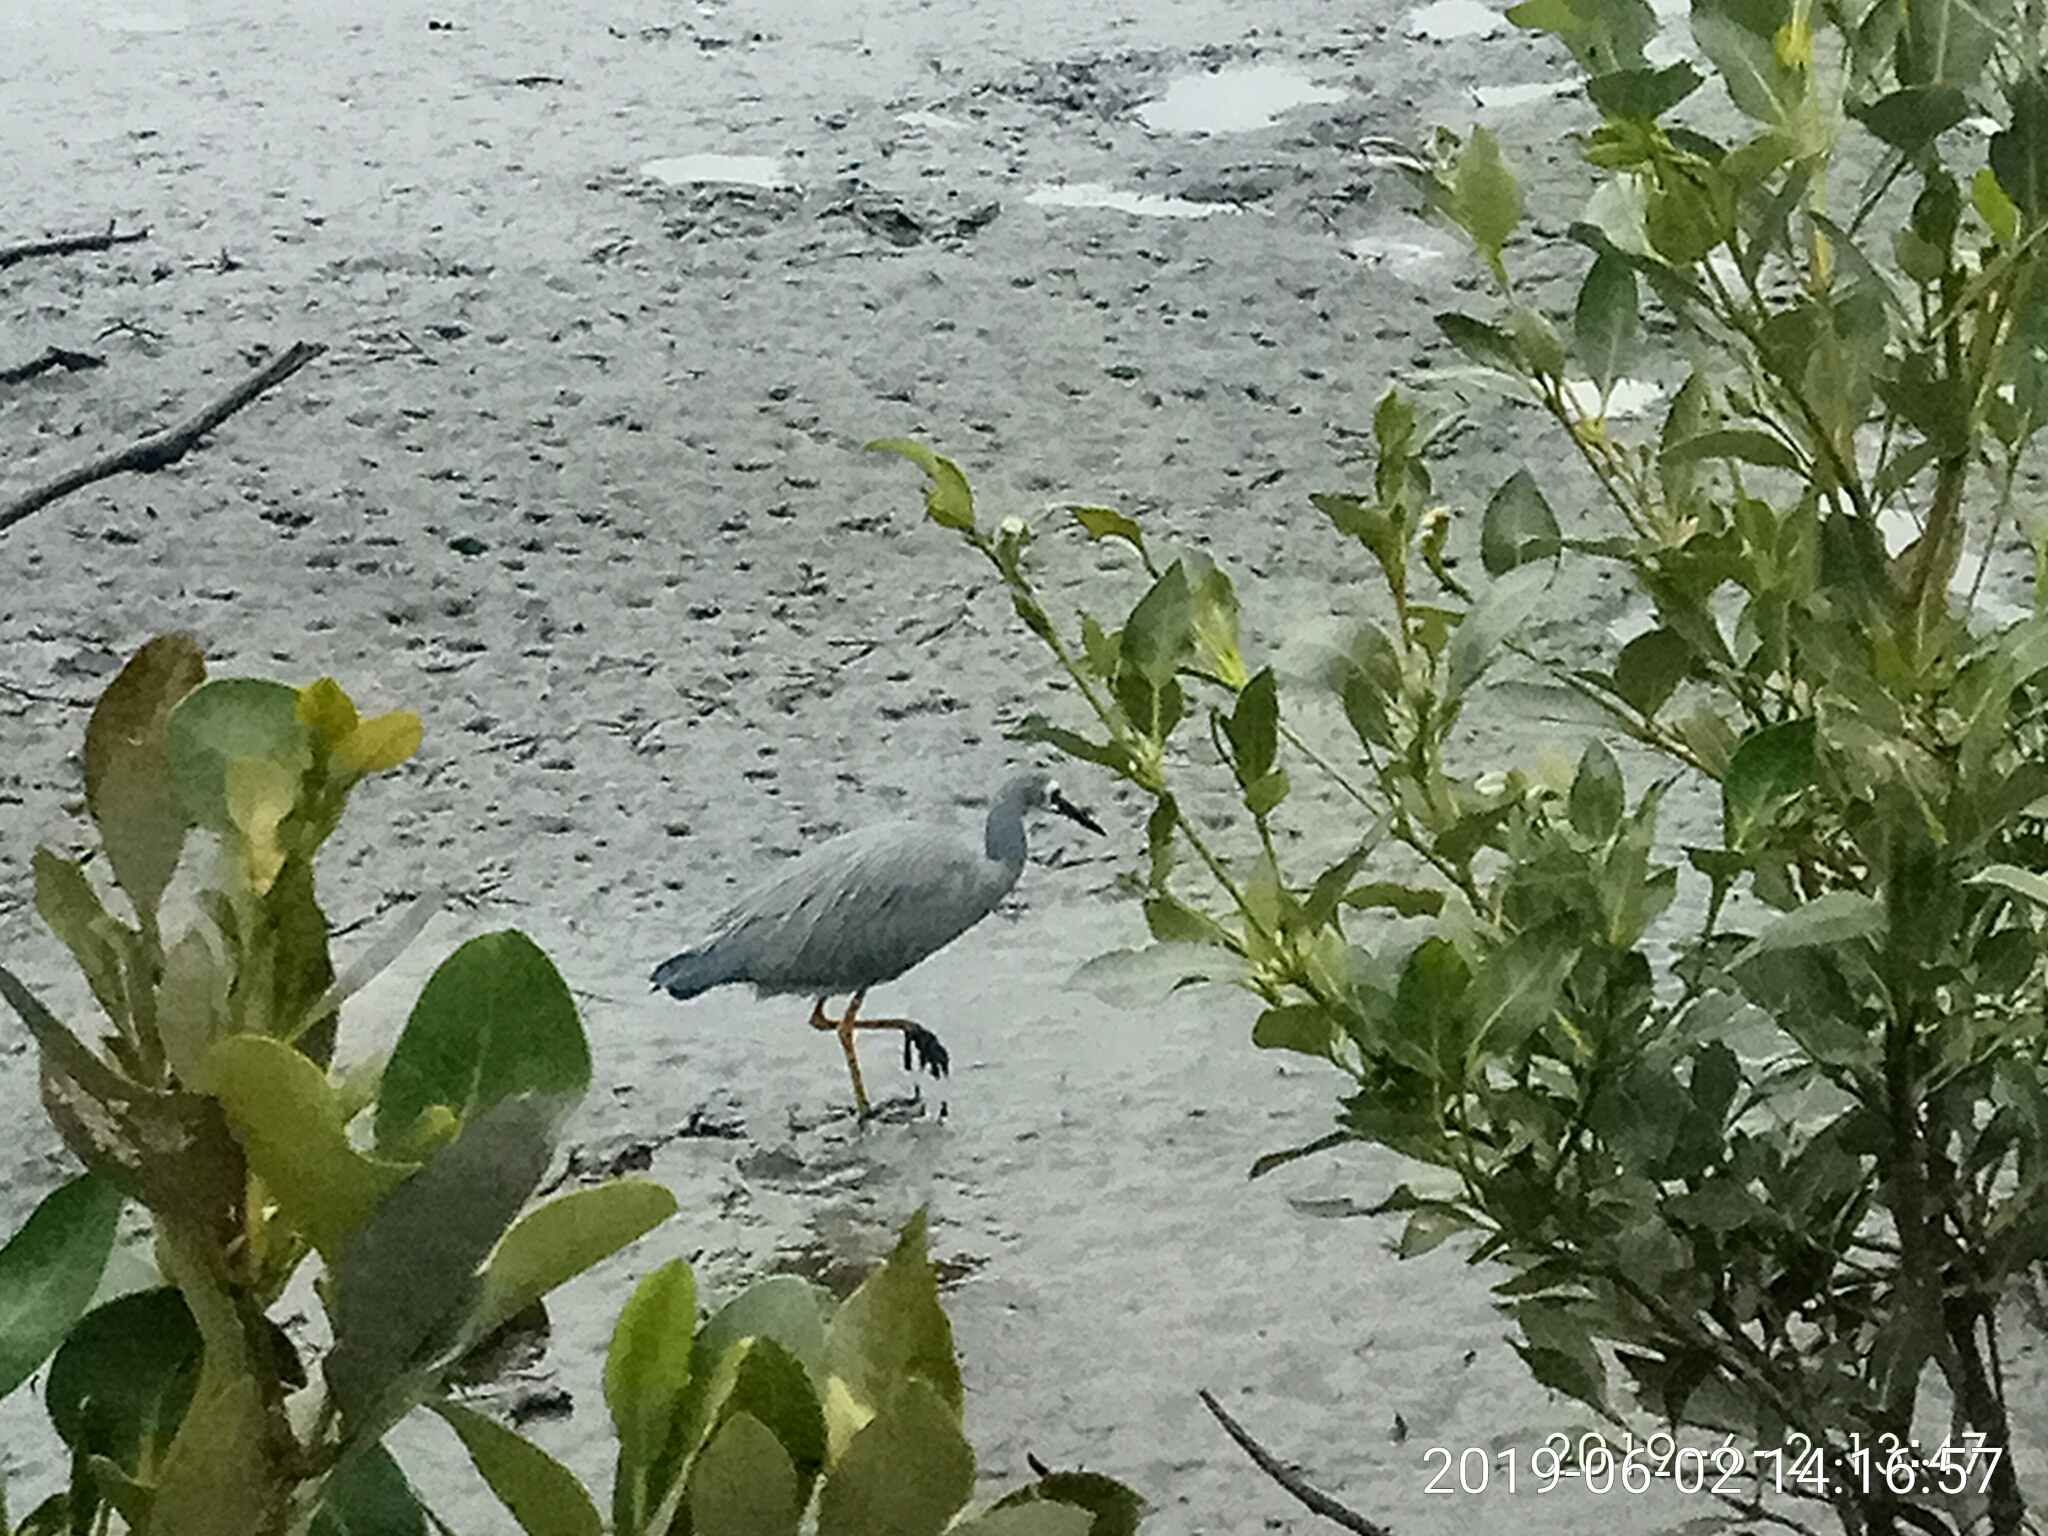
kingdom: Animalia
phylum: Chordata
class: Aves
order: Pelecaniformes
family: Ardeidae
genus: Egretta
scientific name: Egretta novaehollandiae
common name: White-faced heron
